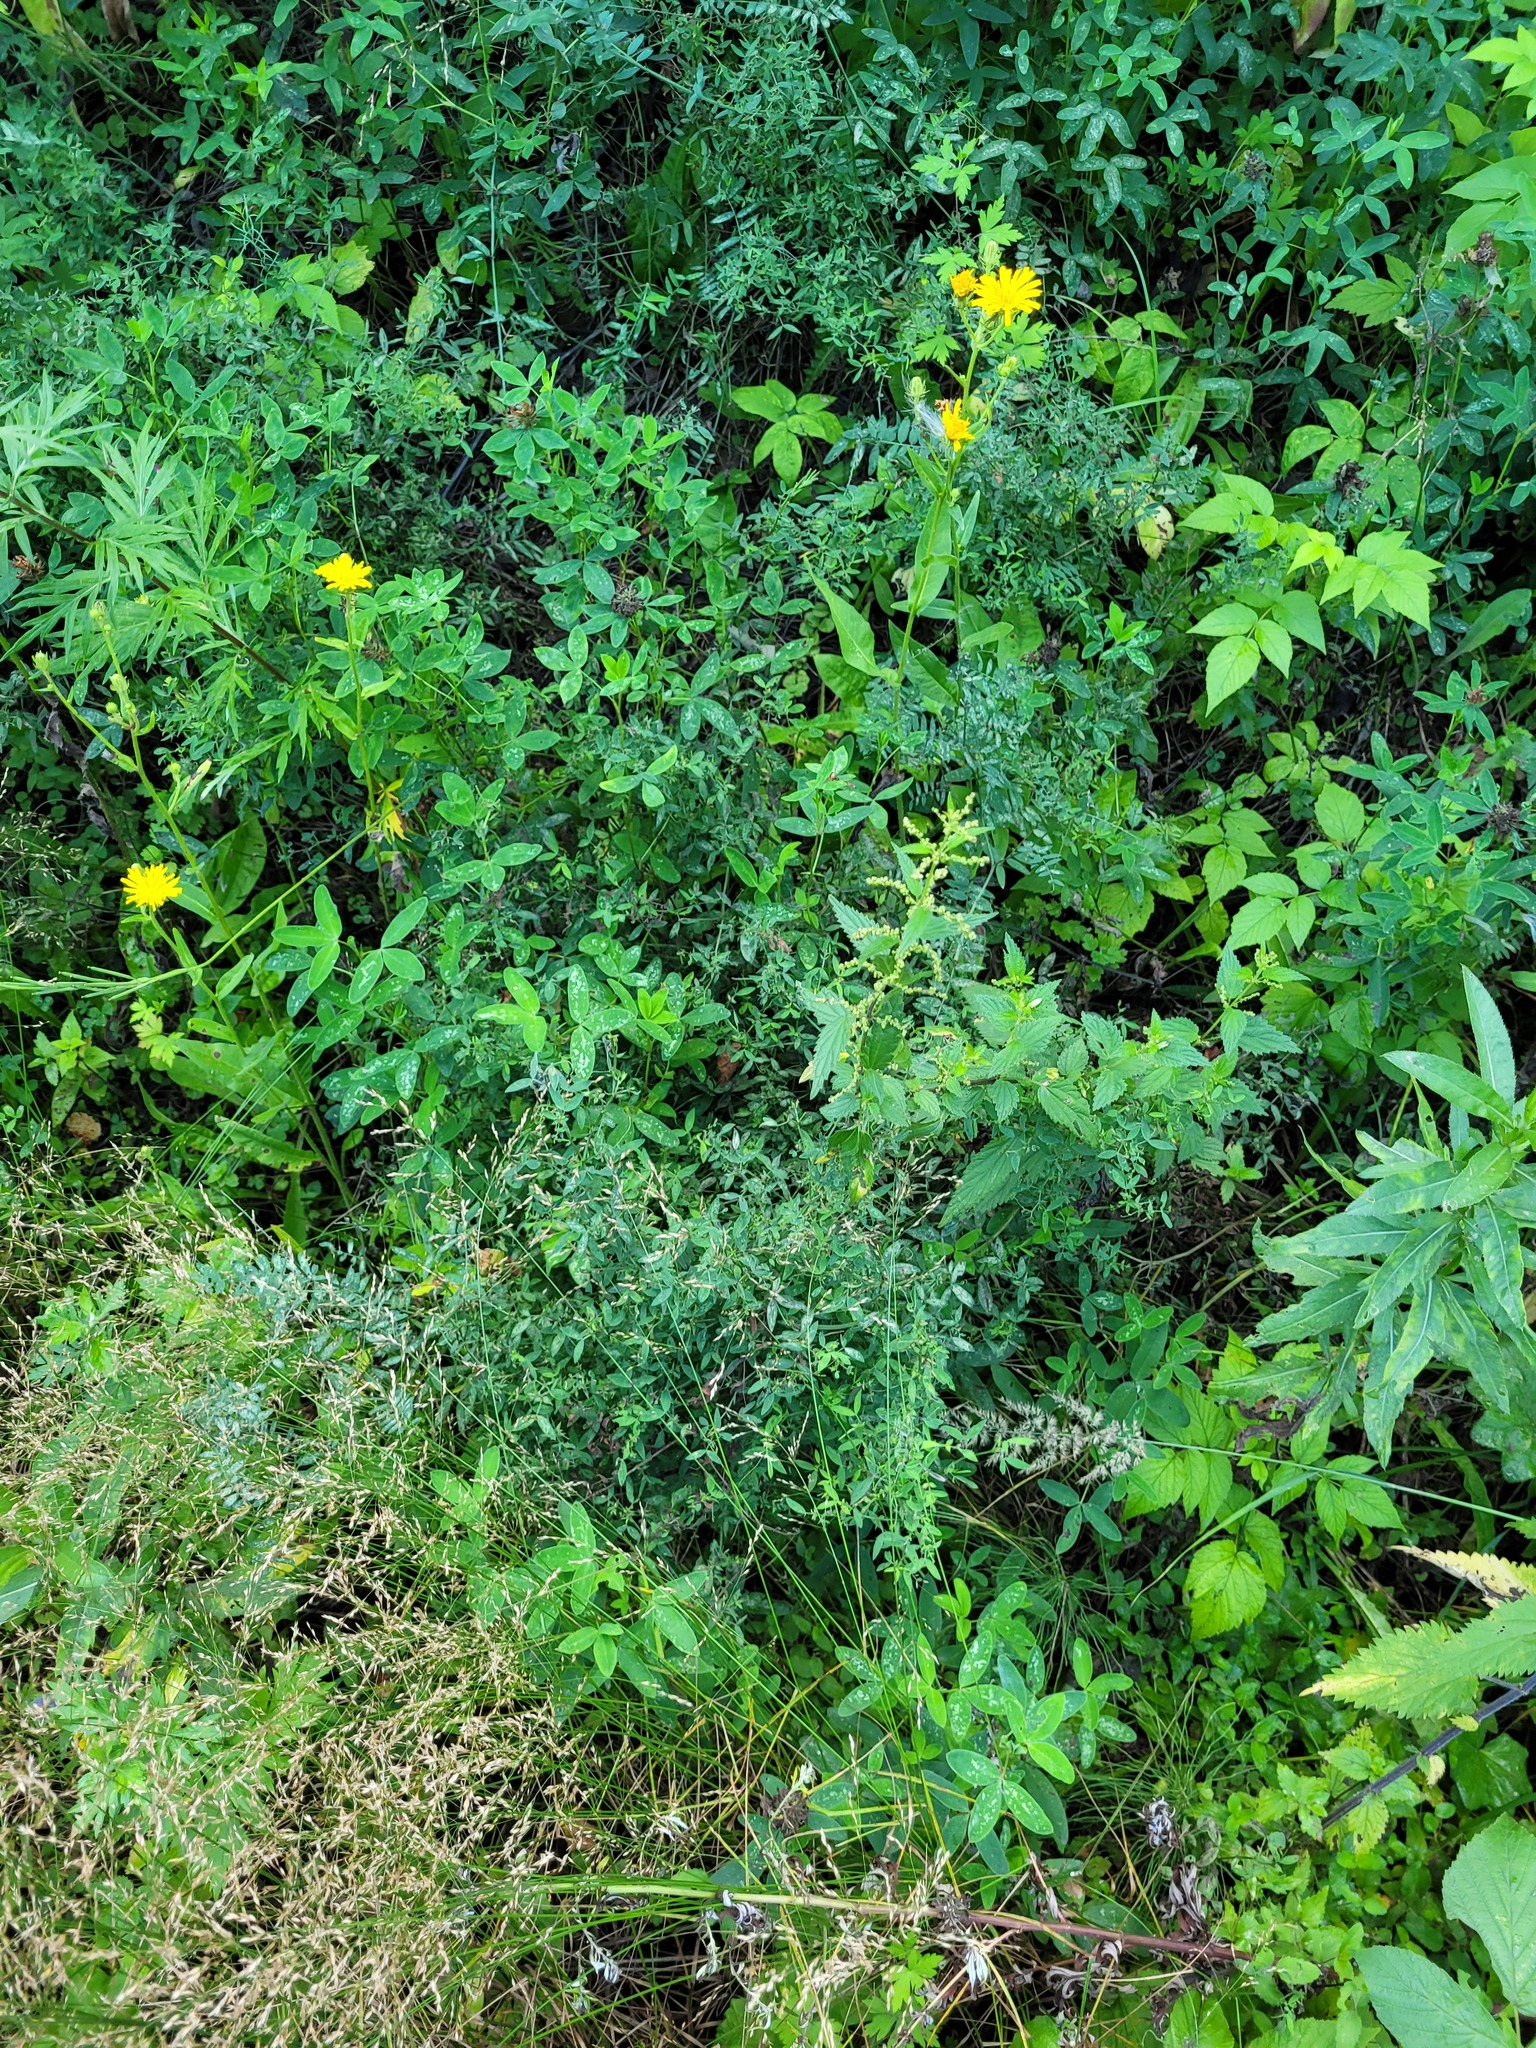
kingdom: Plantae
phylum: Tracheophyta
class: Magnoliopsida
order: Fabales
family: Fabaceae
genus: Lathyrus
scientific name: Lathyrus pratensis
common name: Meadow vetchling
